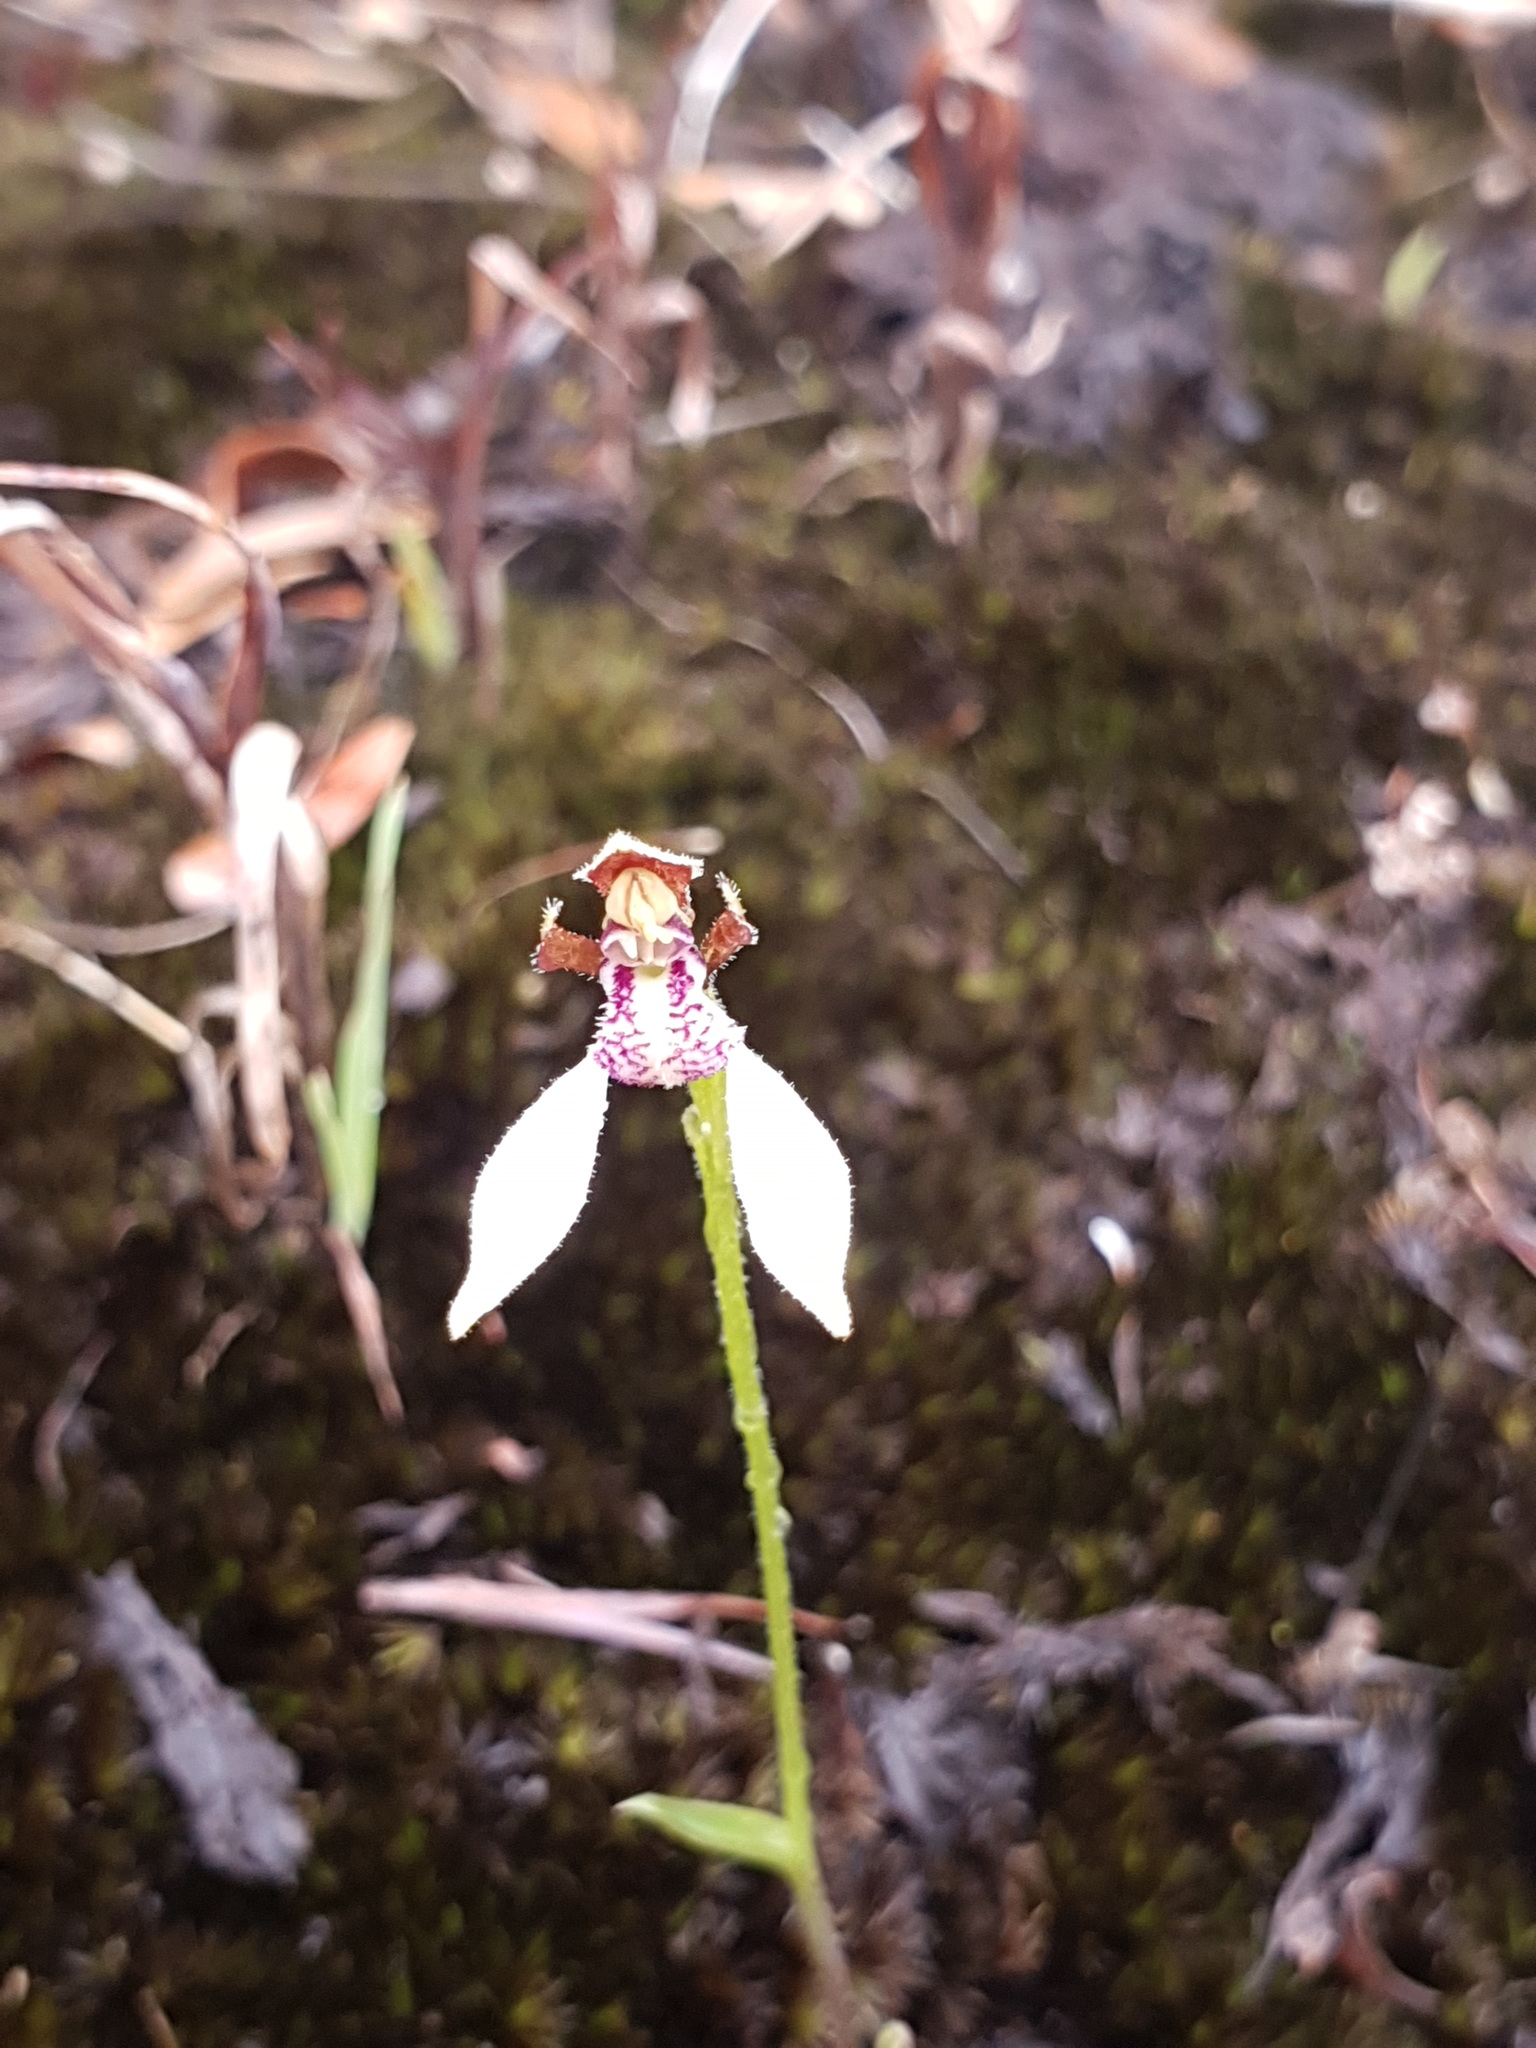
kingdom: Plantae
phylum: Tracheophyta
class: Liliopsida
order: Asparagales
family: Orchidaceae
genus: Eriochilus
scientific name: Eriochilus pulchellus
